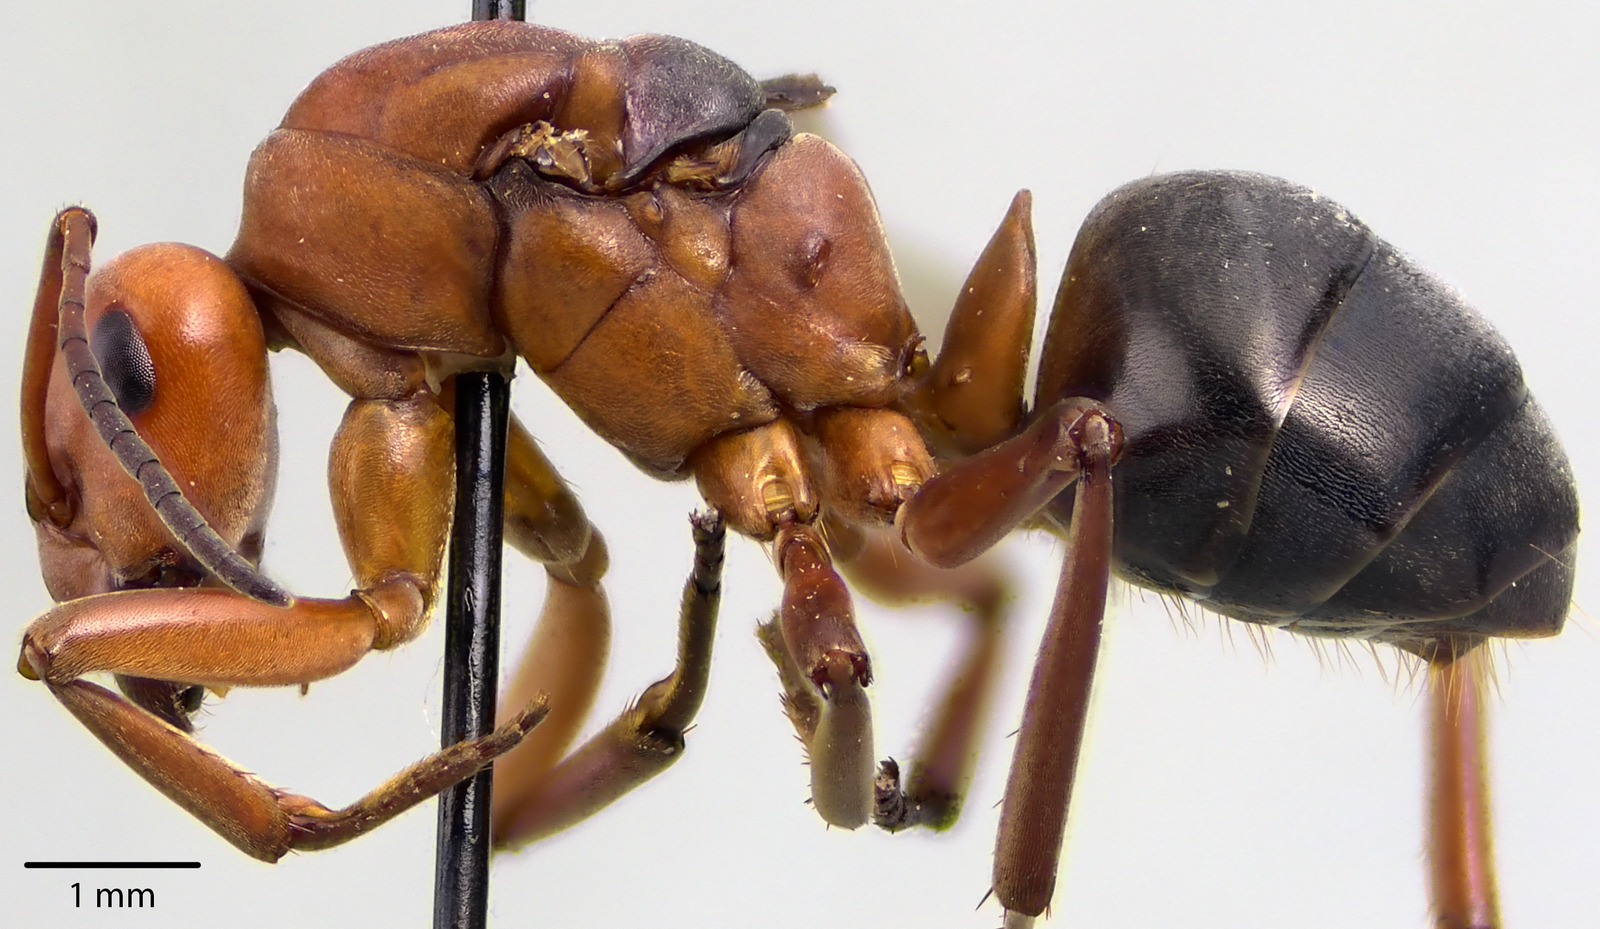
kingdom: Animalia
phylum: Arthropoda
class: Insecta
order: Hymenoptera
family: Formicidae
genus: Formica
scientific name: Formica integra
